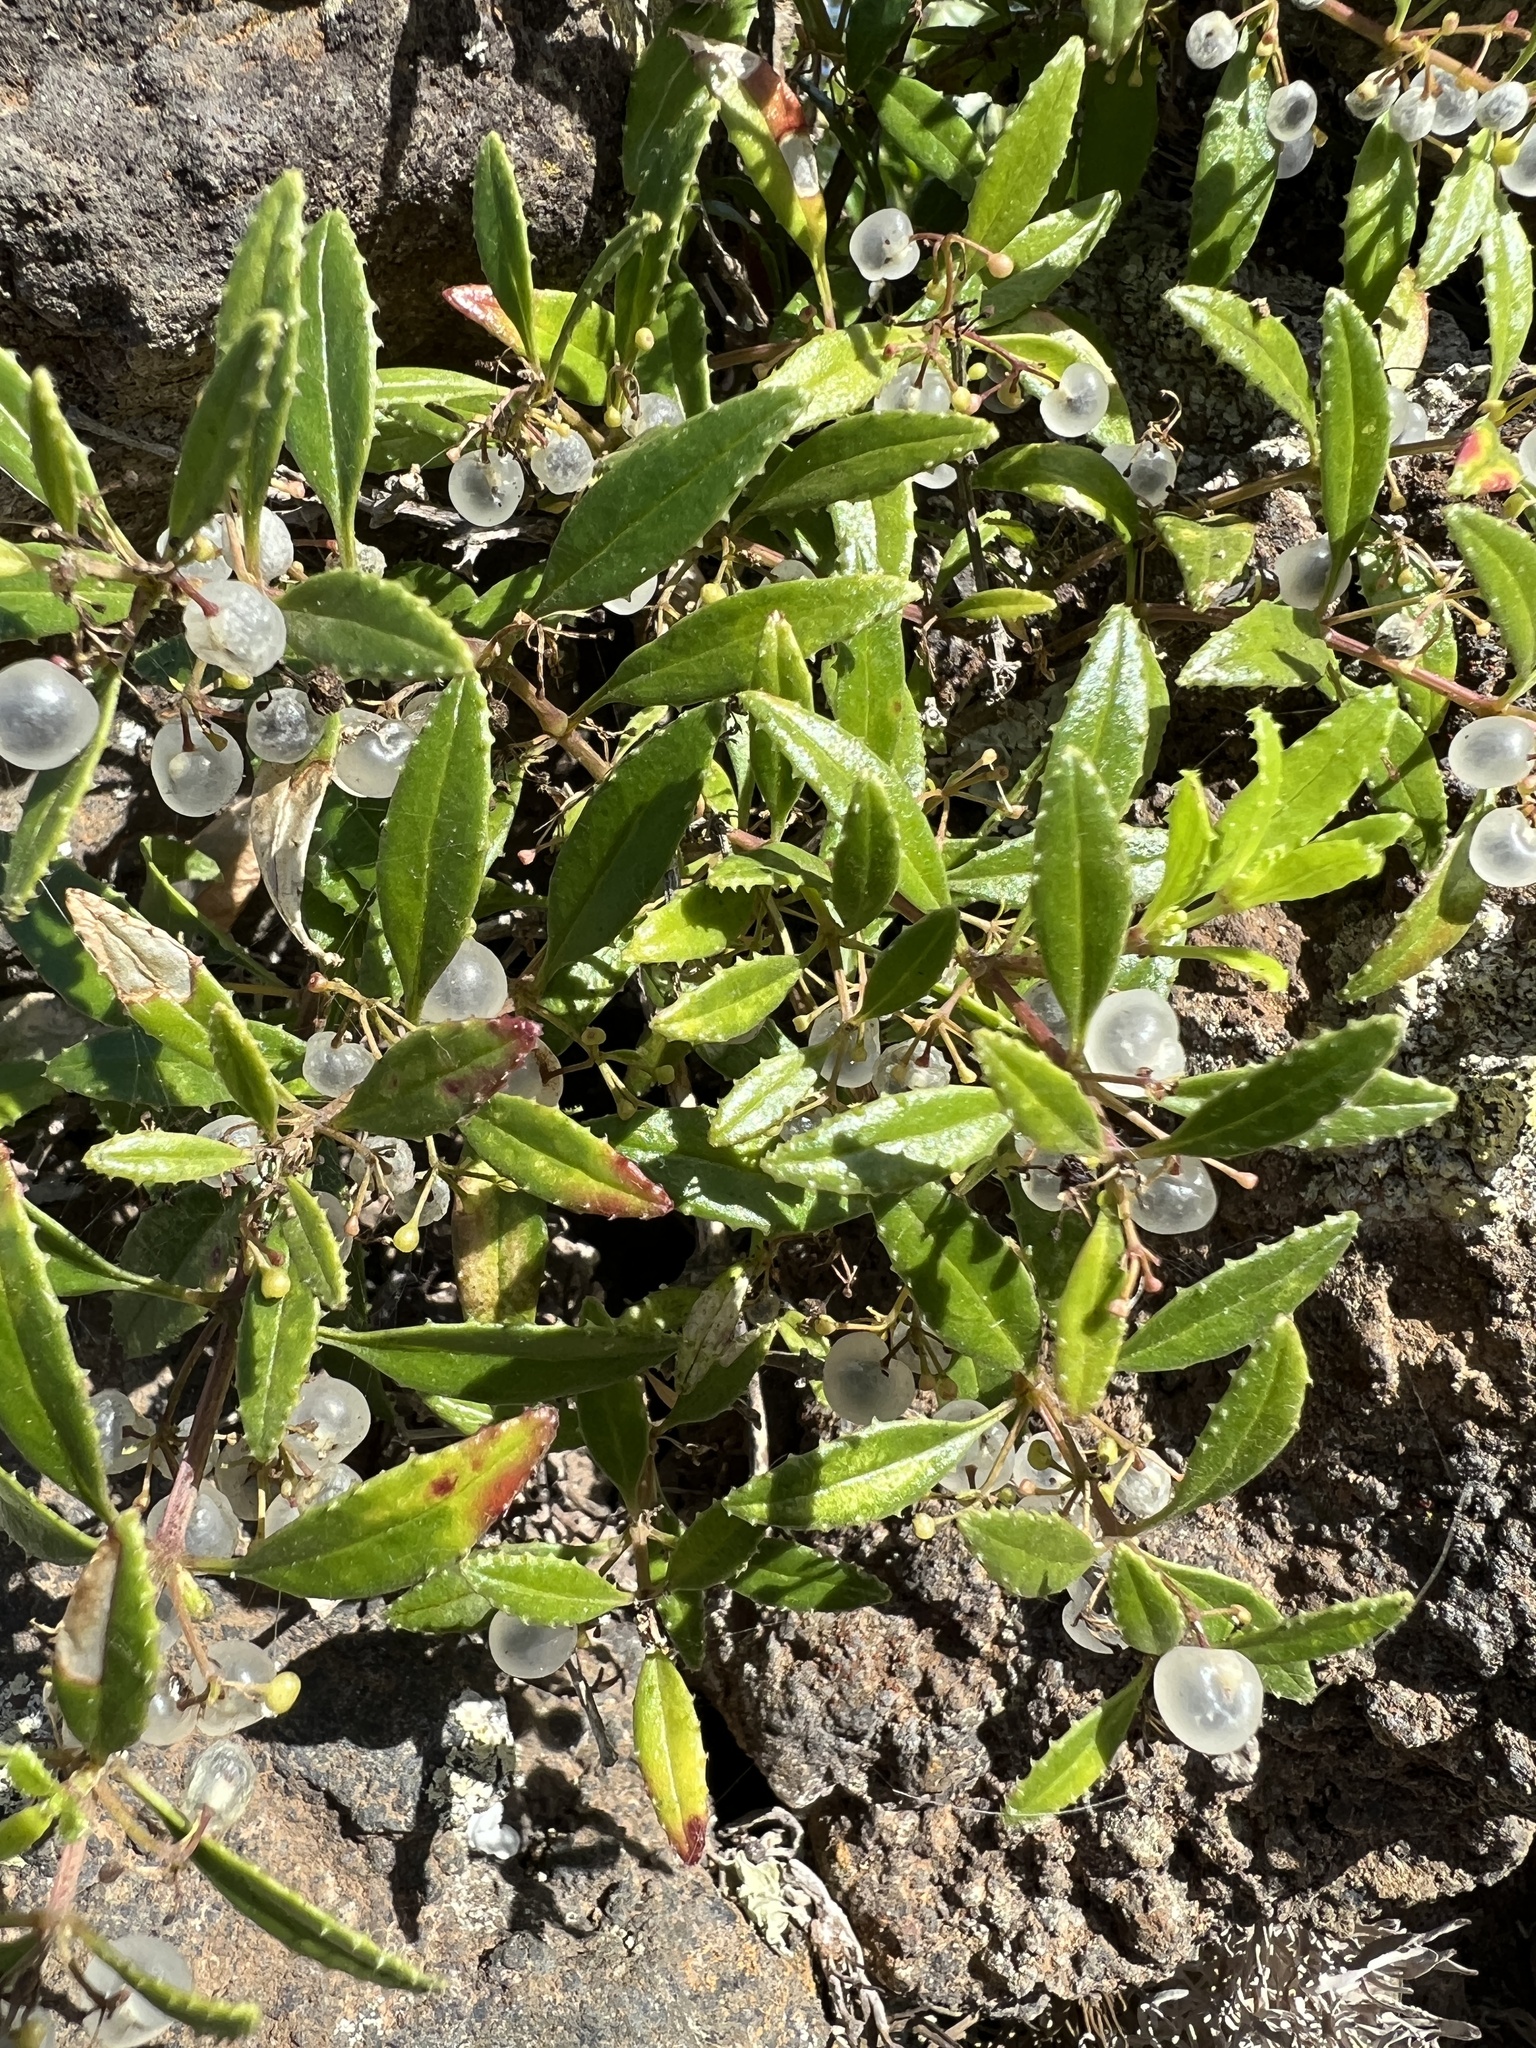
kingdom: Plantae
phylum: Tracheophyta
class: Magnoliopsida
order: Gentianales
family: Rubiaceae
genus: Rubia
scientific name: Rubia fruticosa
